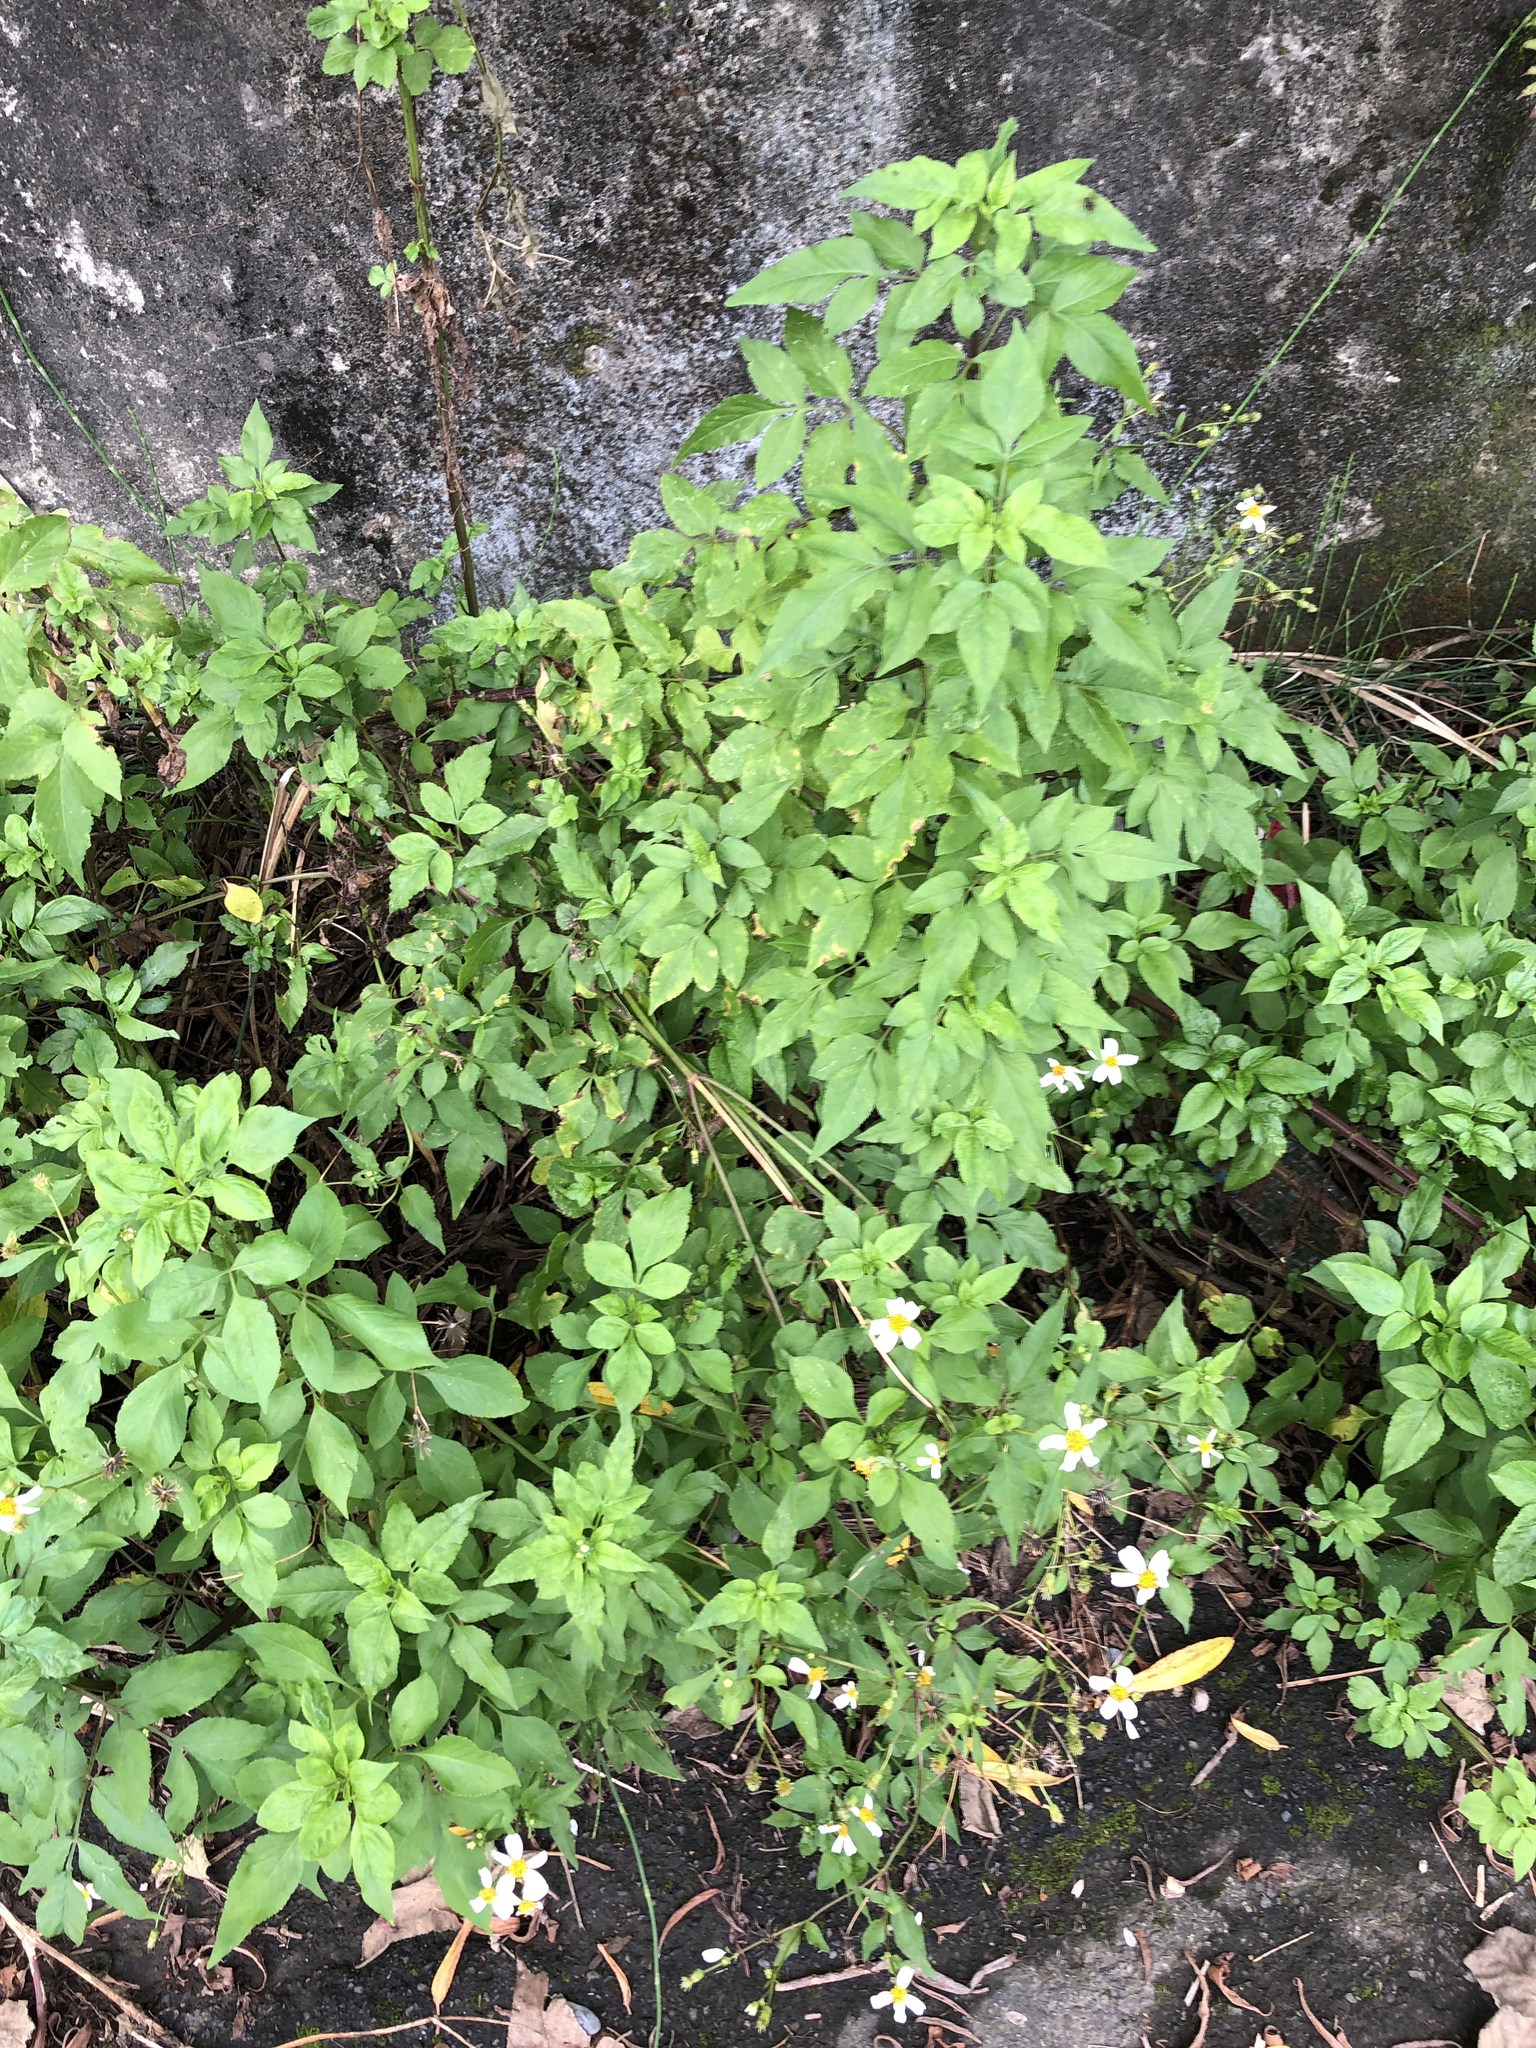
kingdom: Plantae
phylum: Tracheophyta
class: Magnoliopsida
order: Asterales
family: Asteraceae
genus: Bidens
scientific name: Bidens alba
